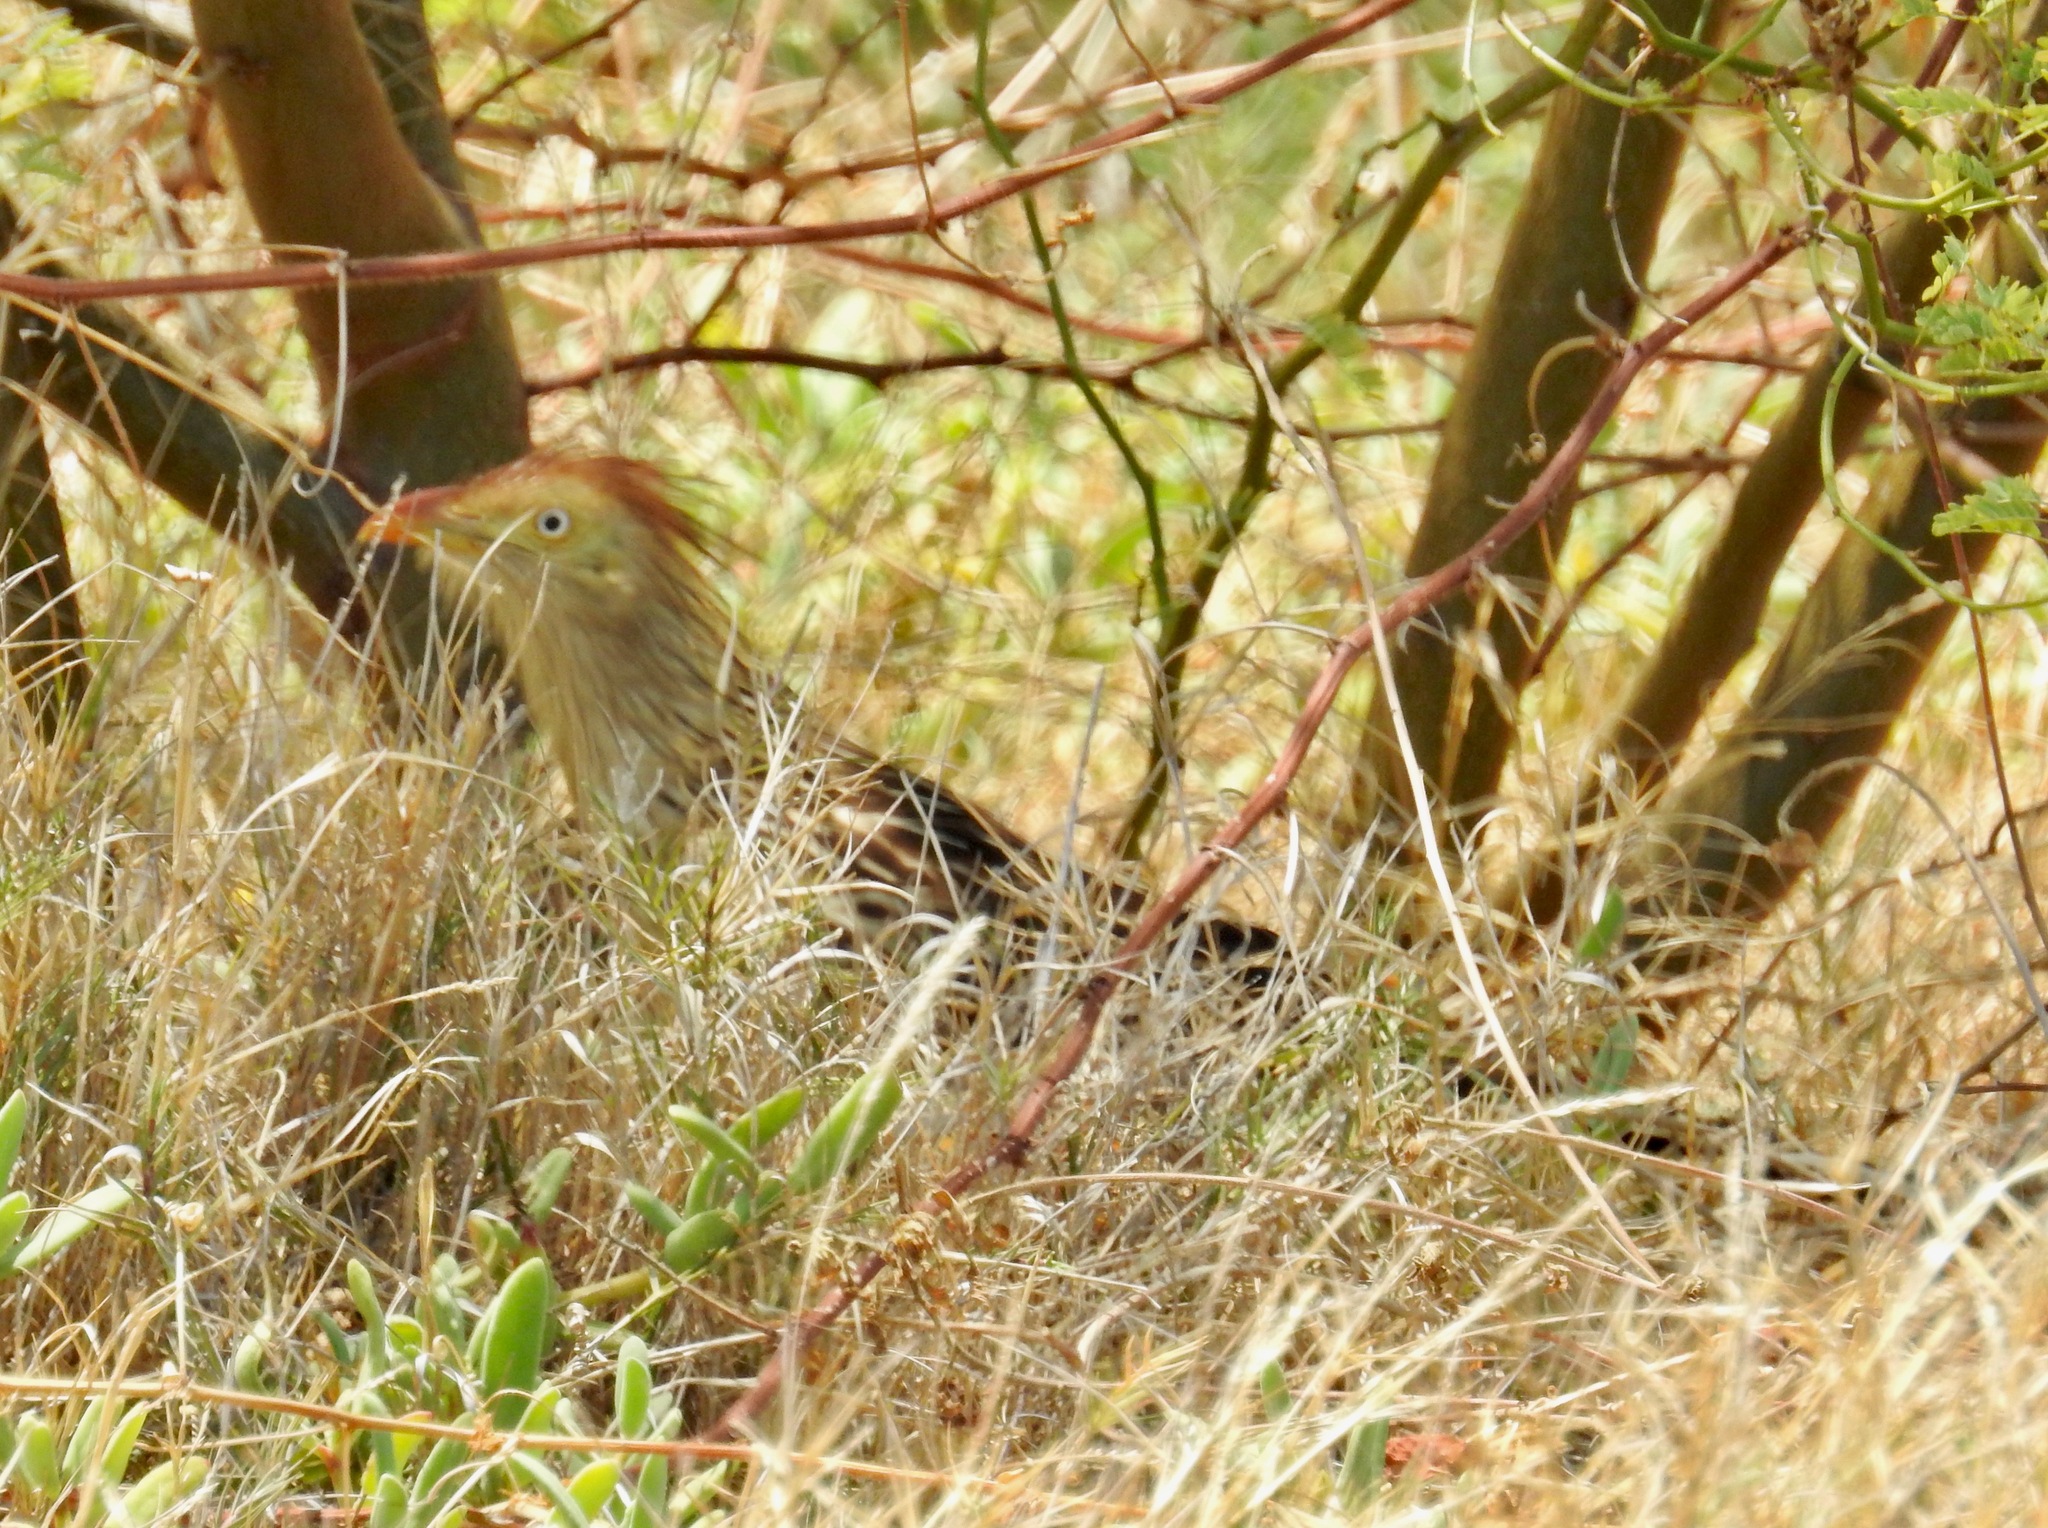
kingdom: Animalia
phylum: Chordata
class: Aves
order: Cuculiformes
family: Cuculidae
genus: Guira
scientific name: Guira guira
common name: Guira cuckoo
